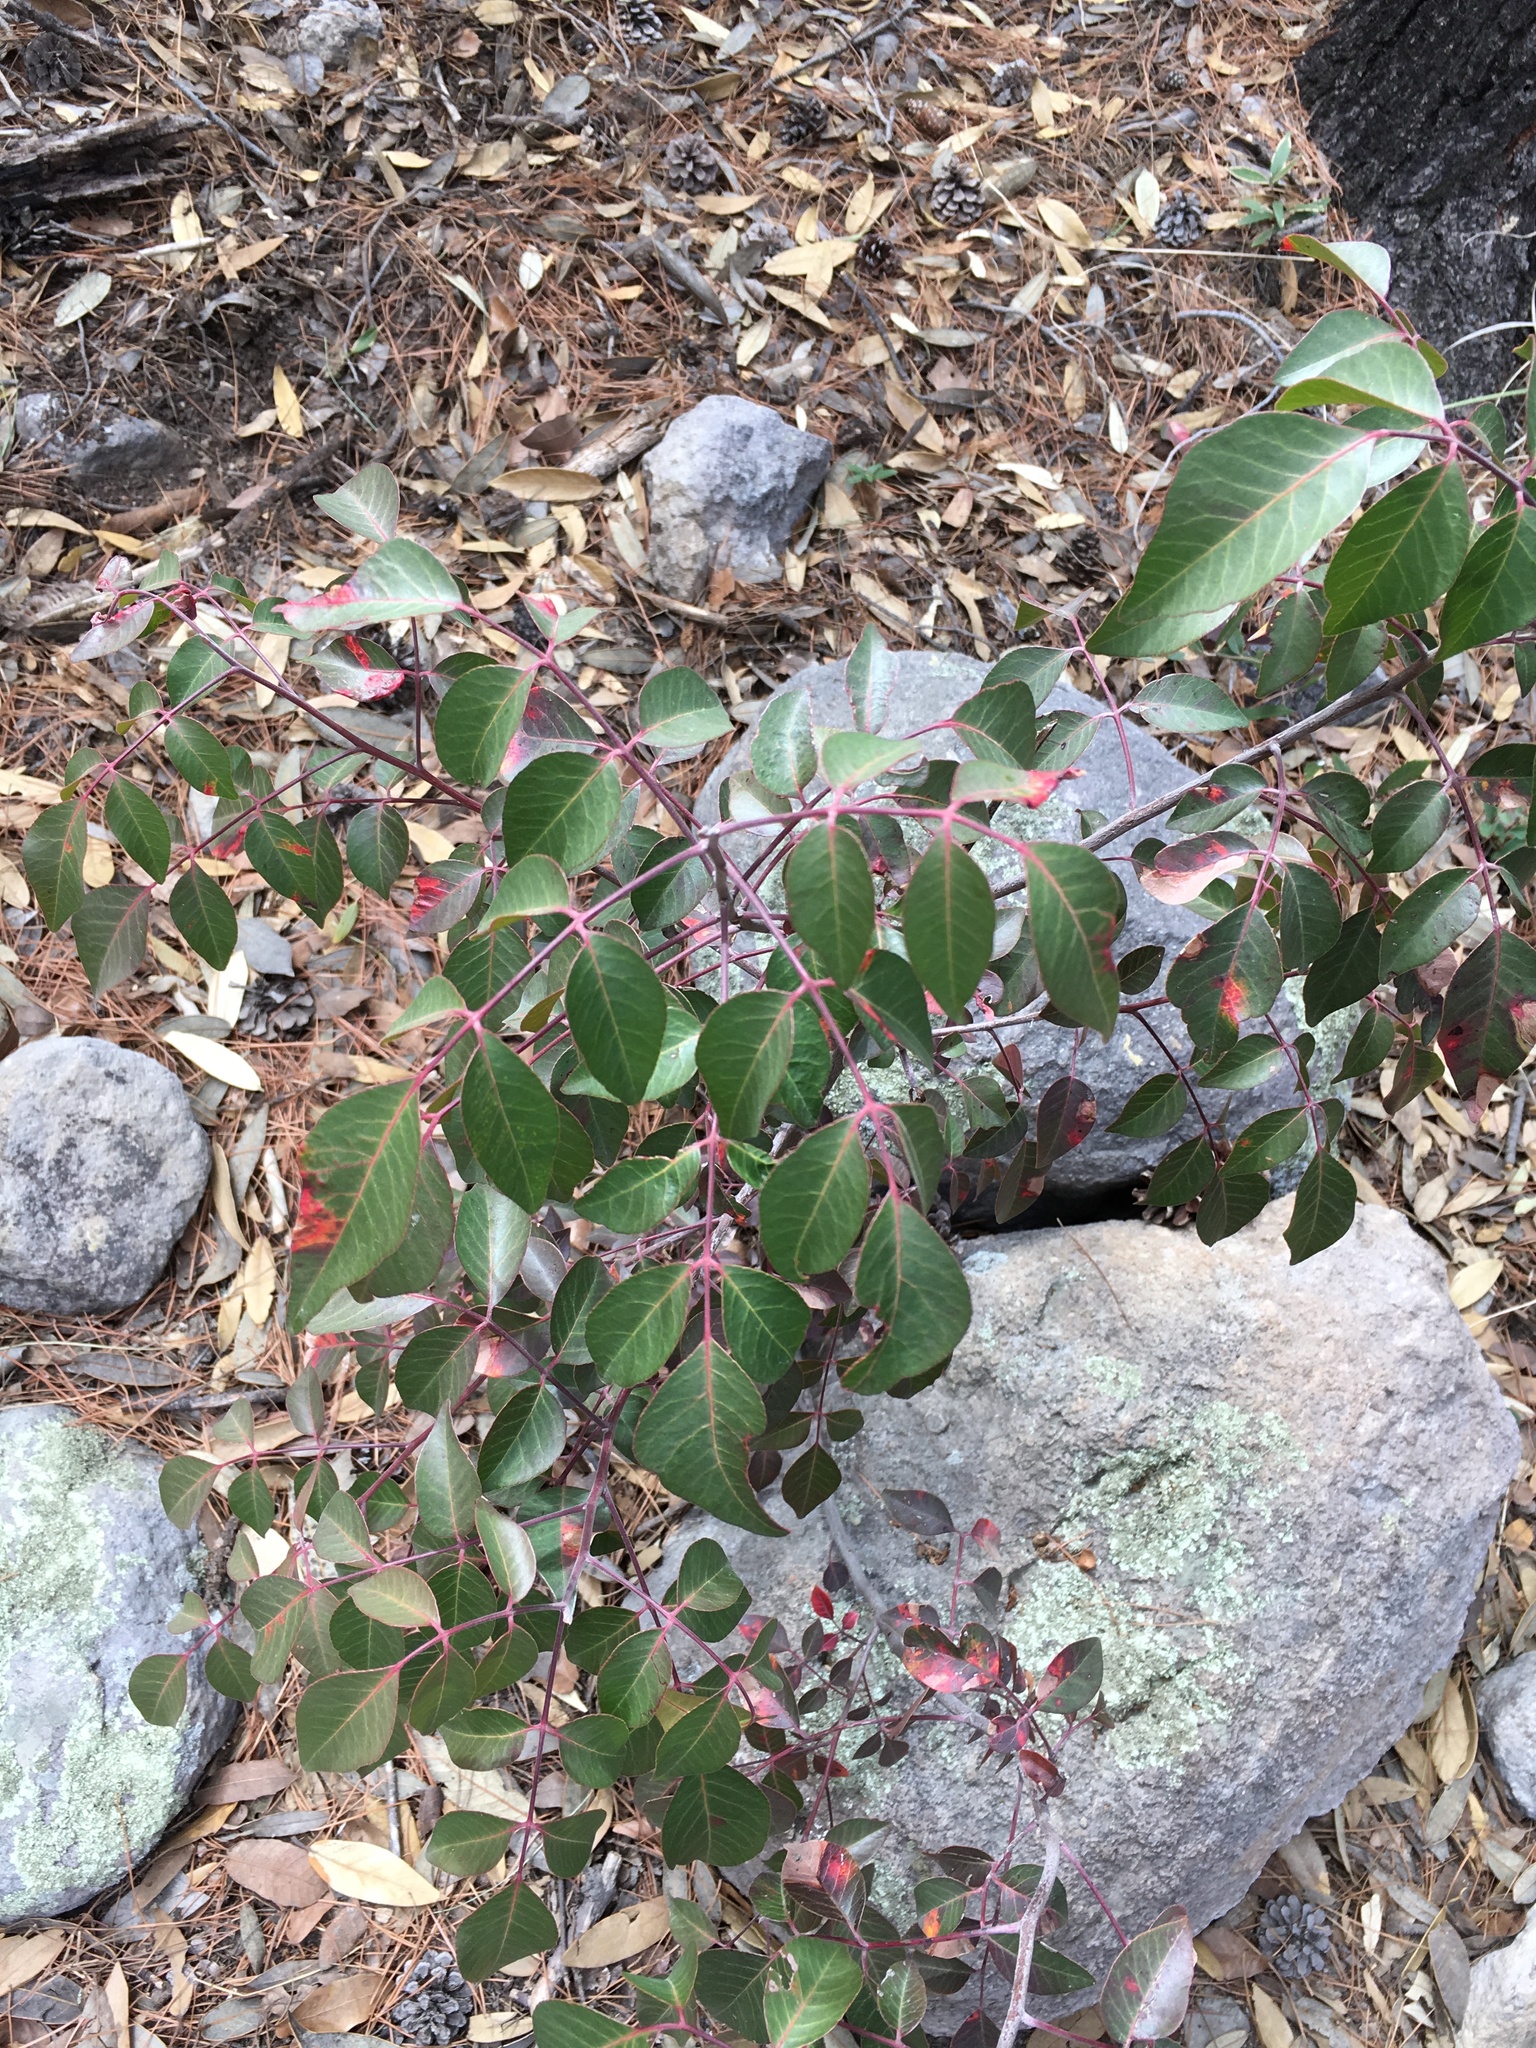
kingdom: Plantae
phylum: Tracheophyta
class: Magnoliopsida
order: Sapindales
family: Anacardiaceae
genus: Rhus
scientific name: Rhus virens
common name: Evergreen sumac
